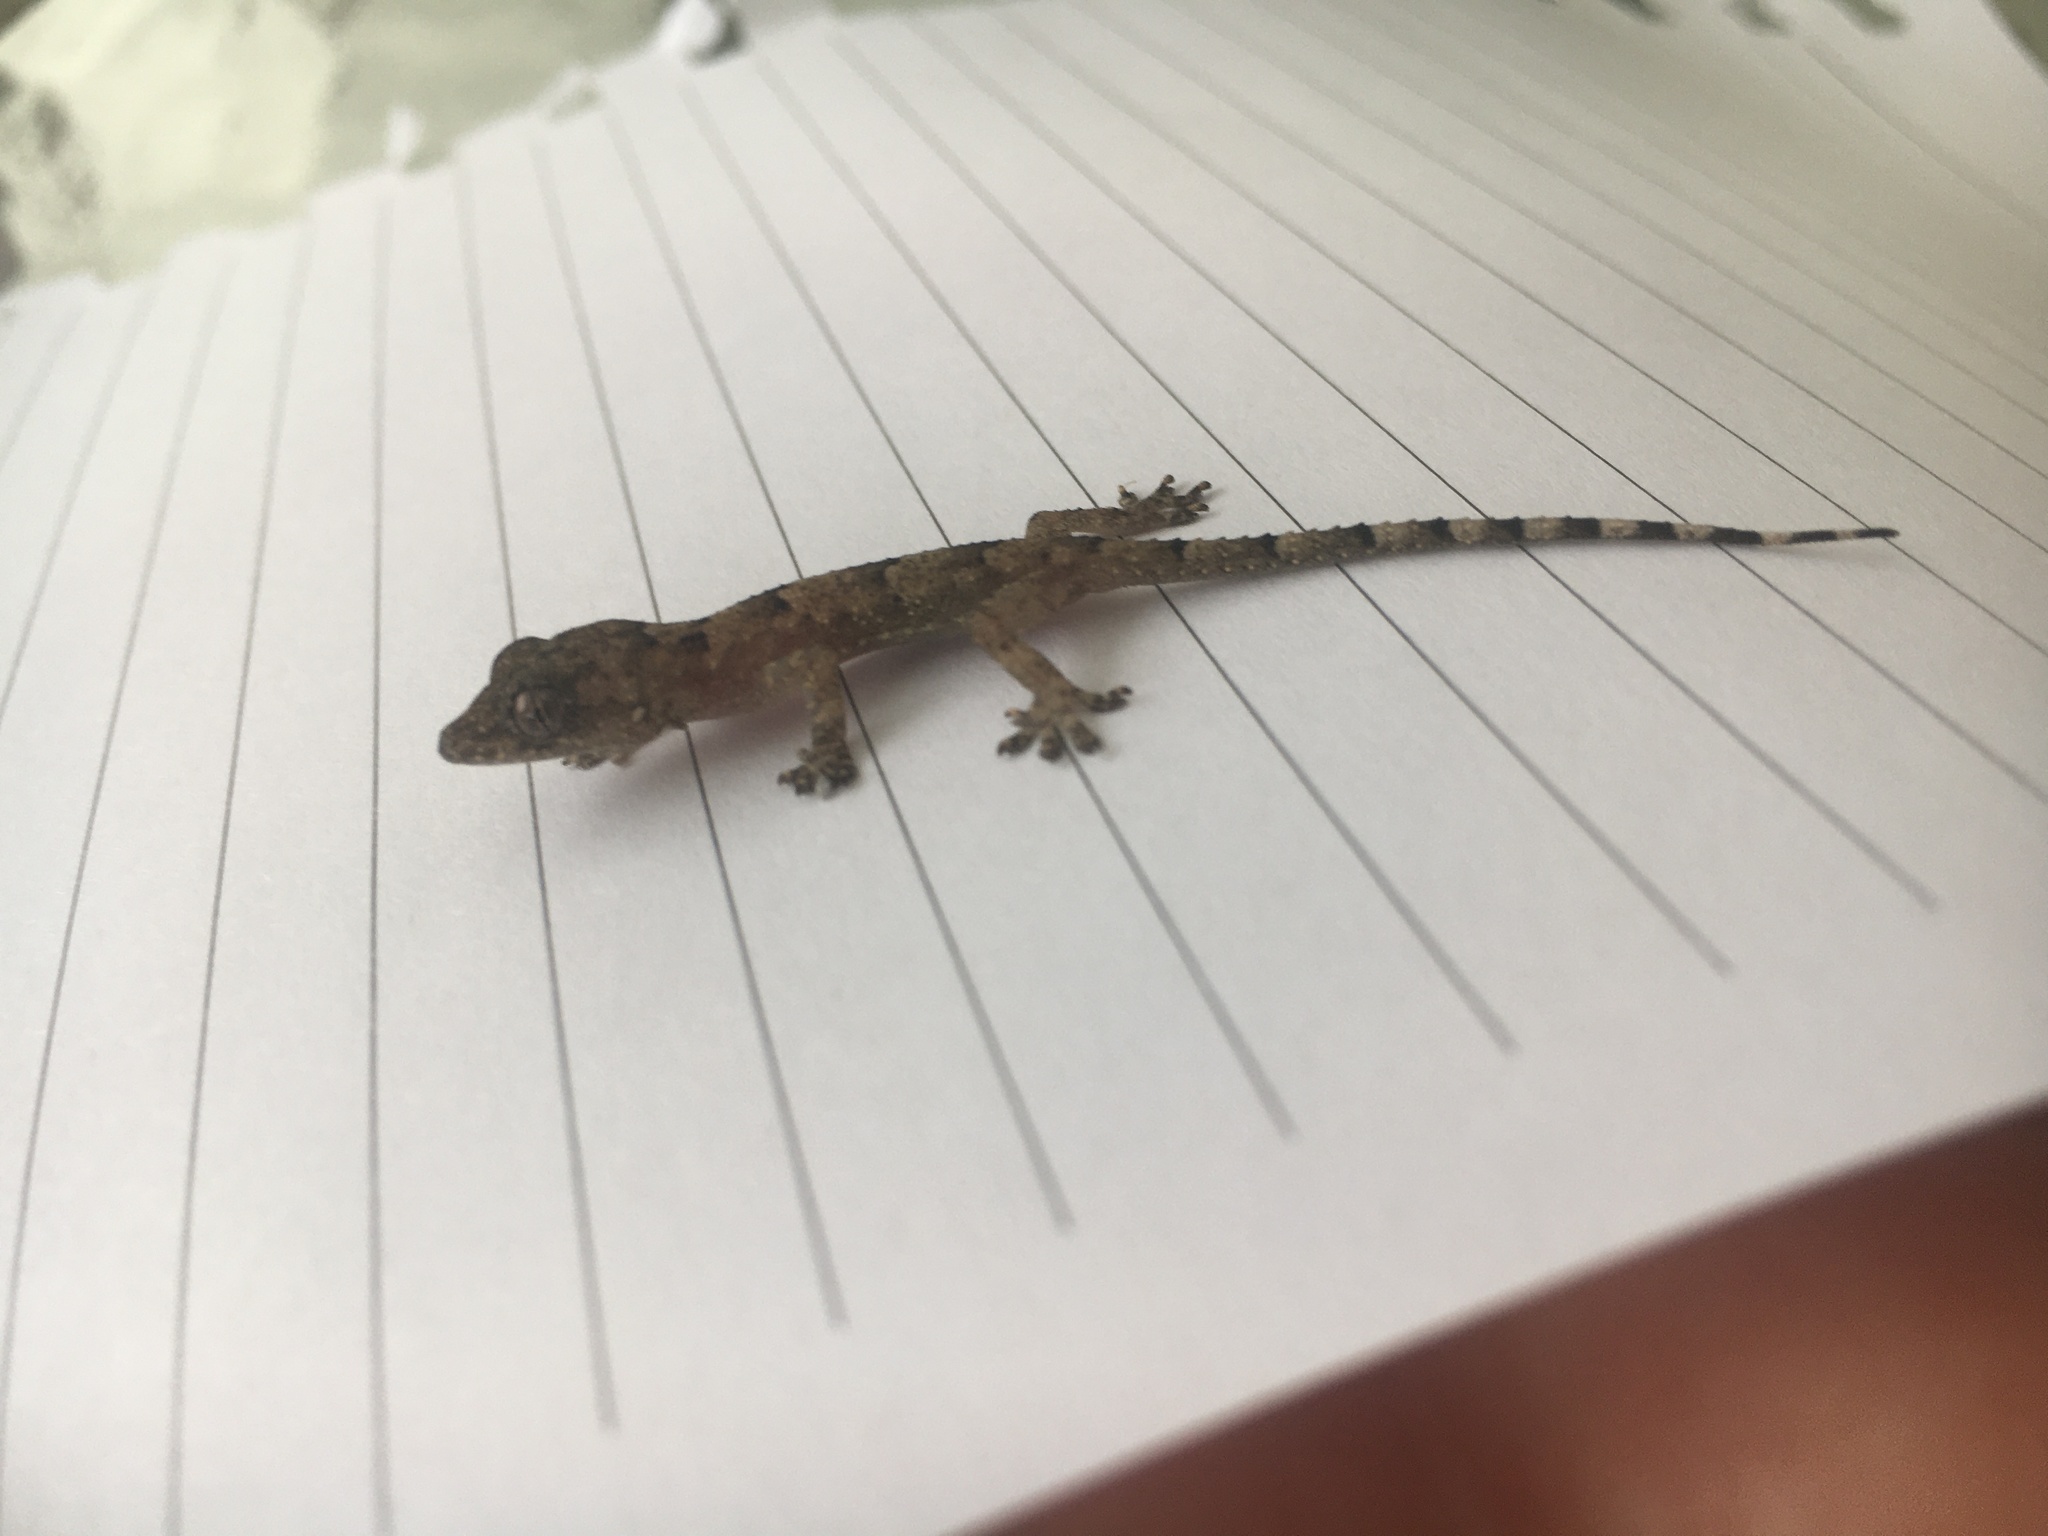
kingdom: Animalia
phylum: Chordata
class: Squamata
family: Gekkonidae
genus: Hemidactylus
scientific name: Hemidactylus mabouia
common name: House gecko
